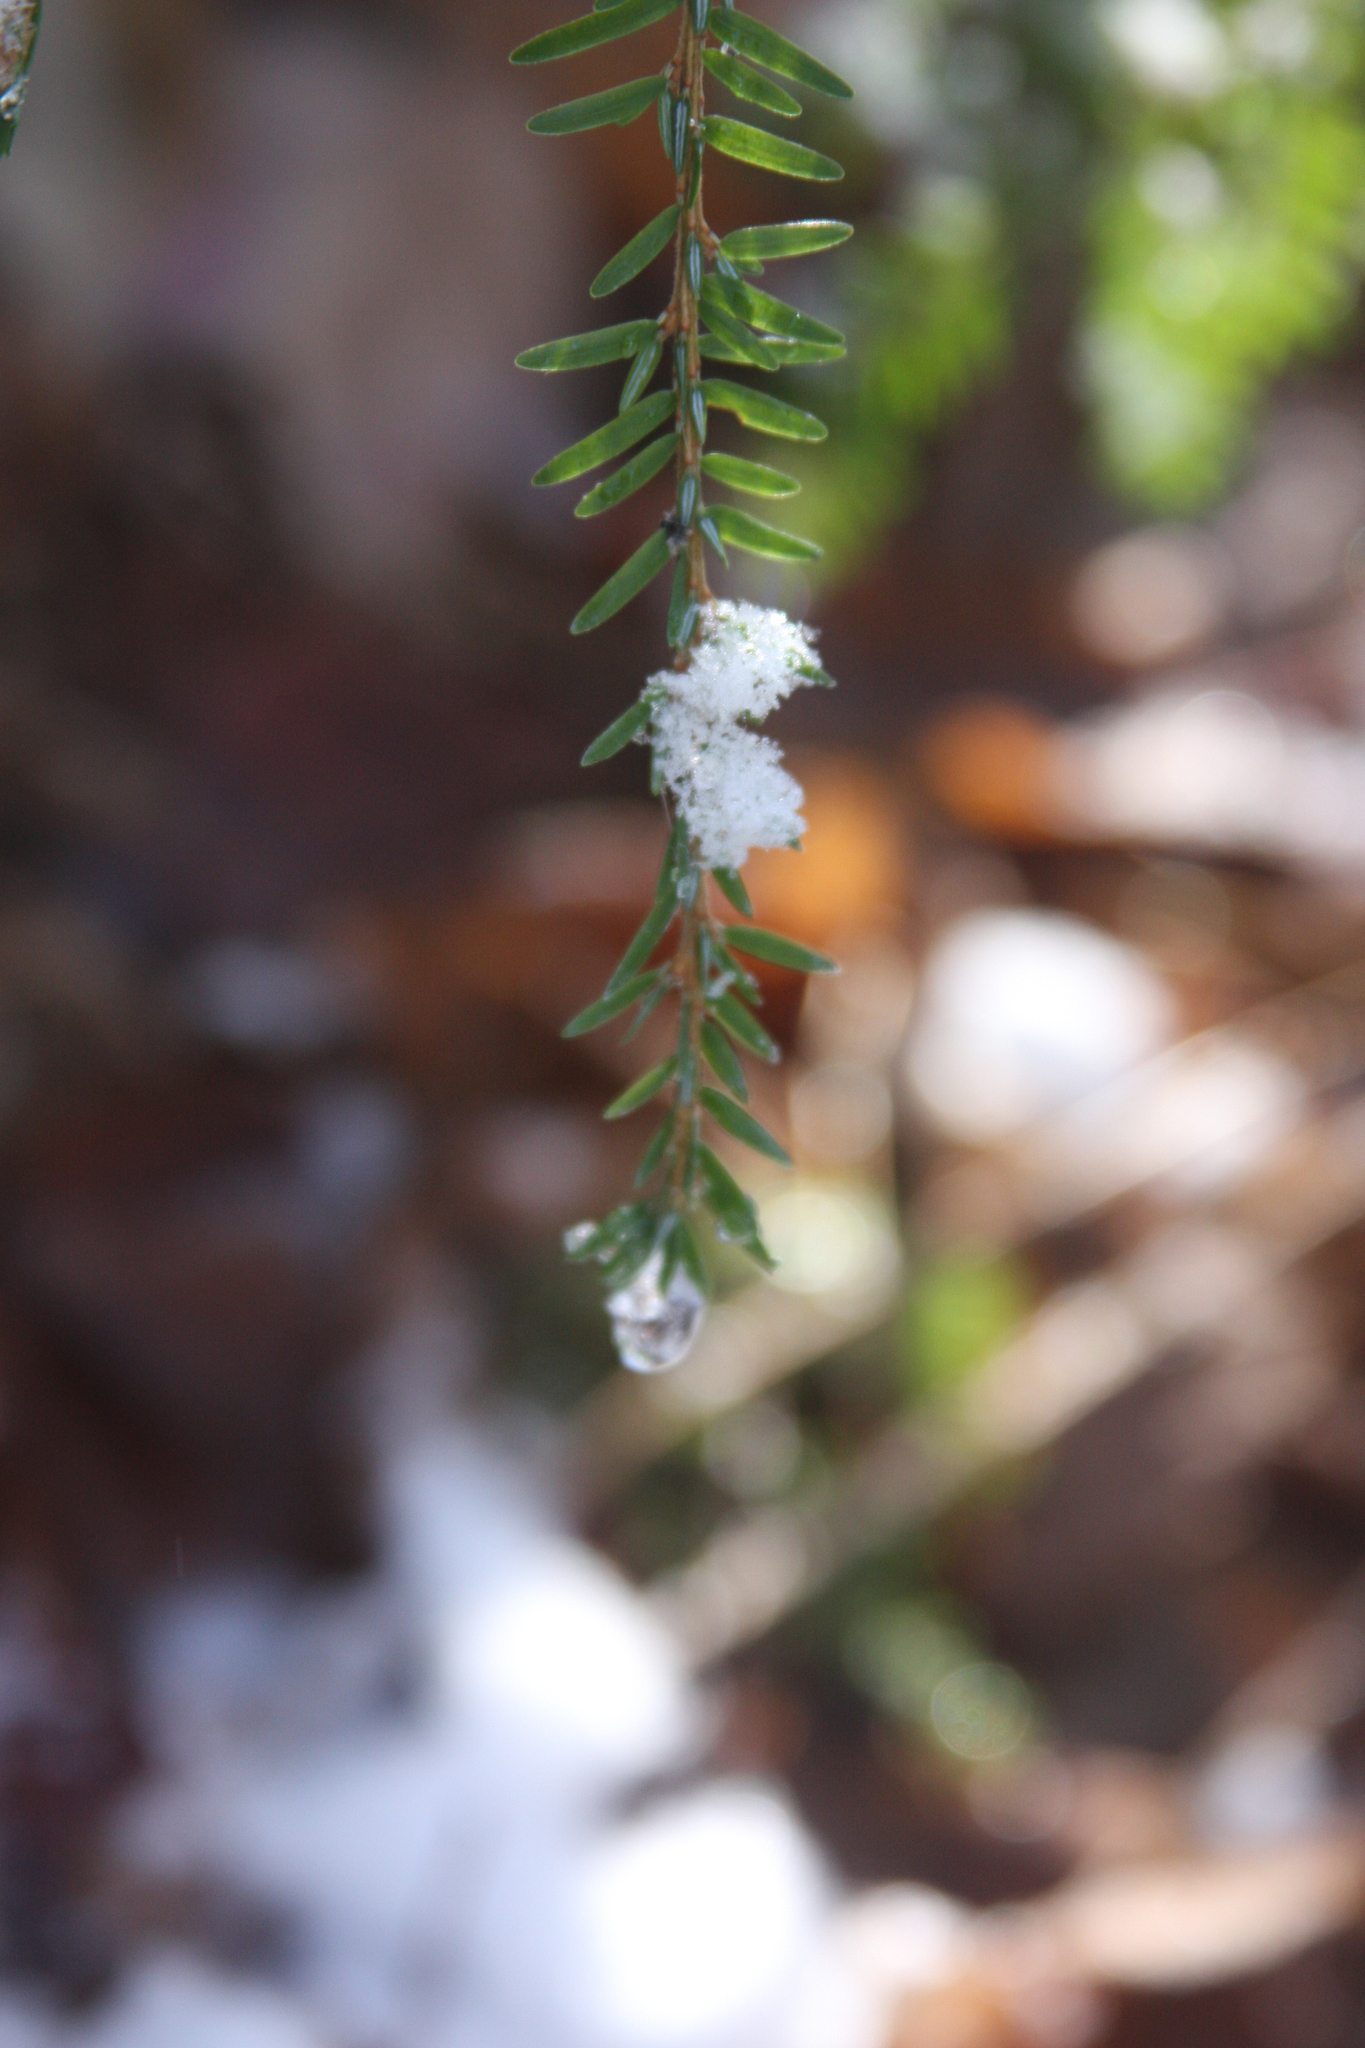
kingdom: Plantae
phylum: Tracheophyta
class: Pinopsida
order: Pinales
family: Pinaceae
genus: Tsuga
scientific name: Tsuga canadensis
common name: Eastern hemlock
